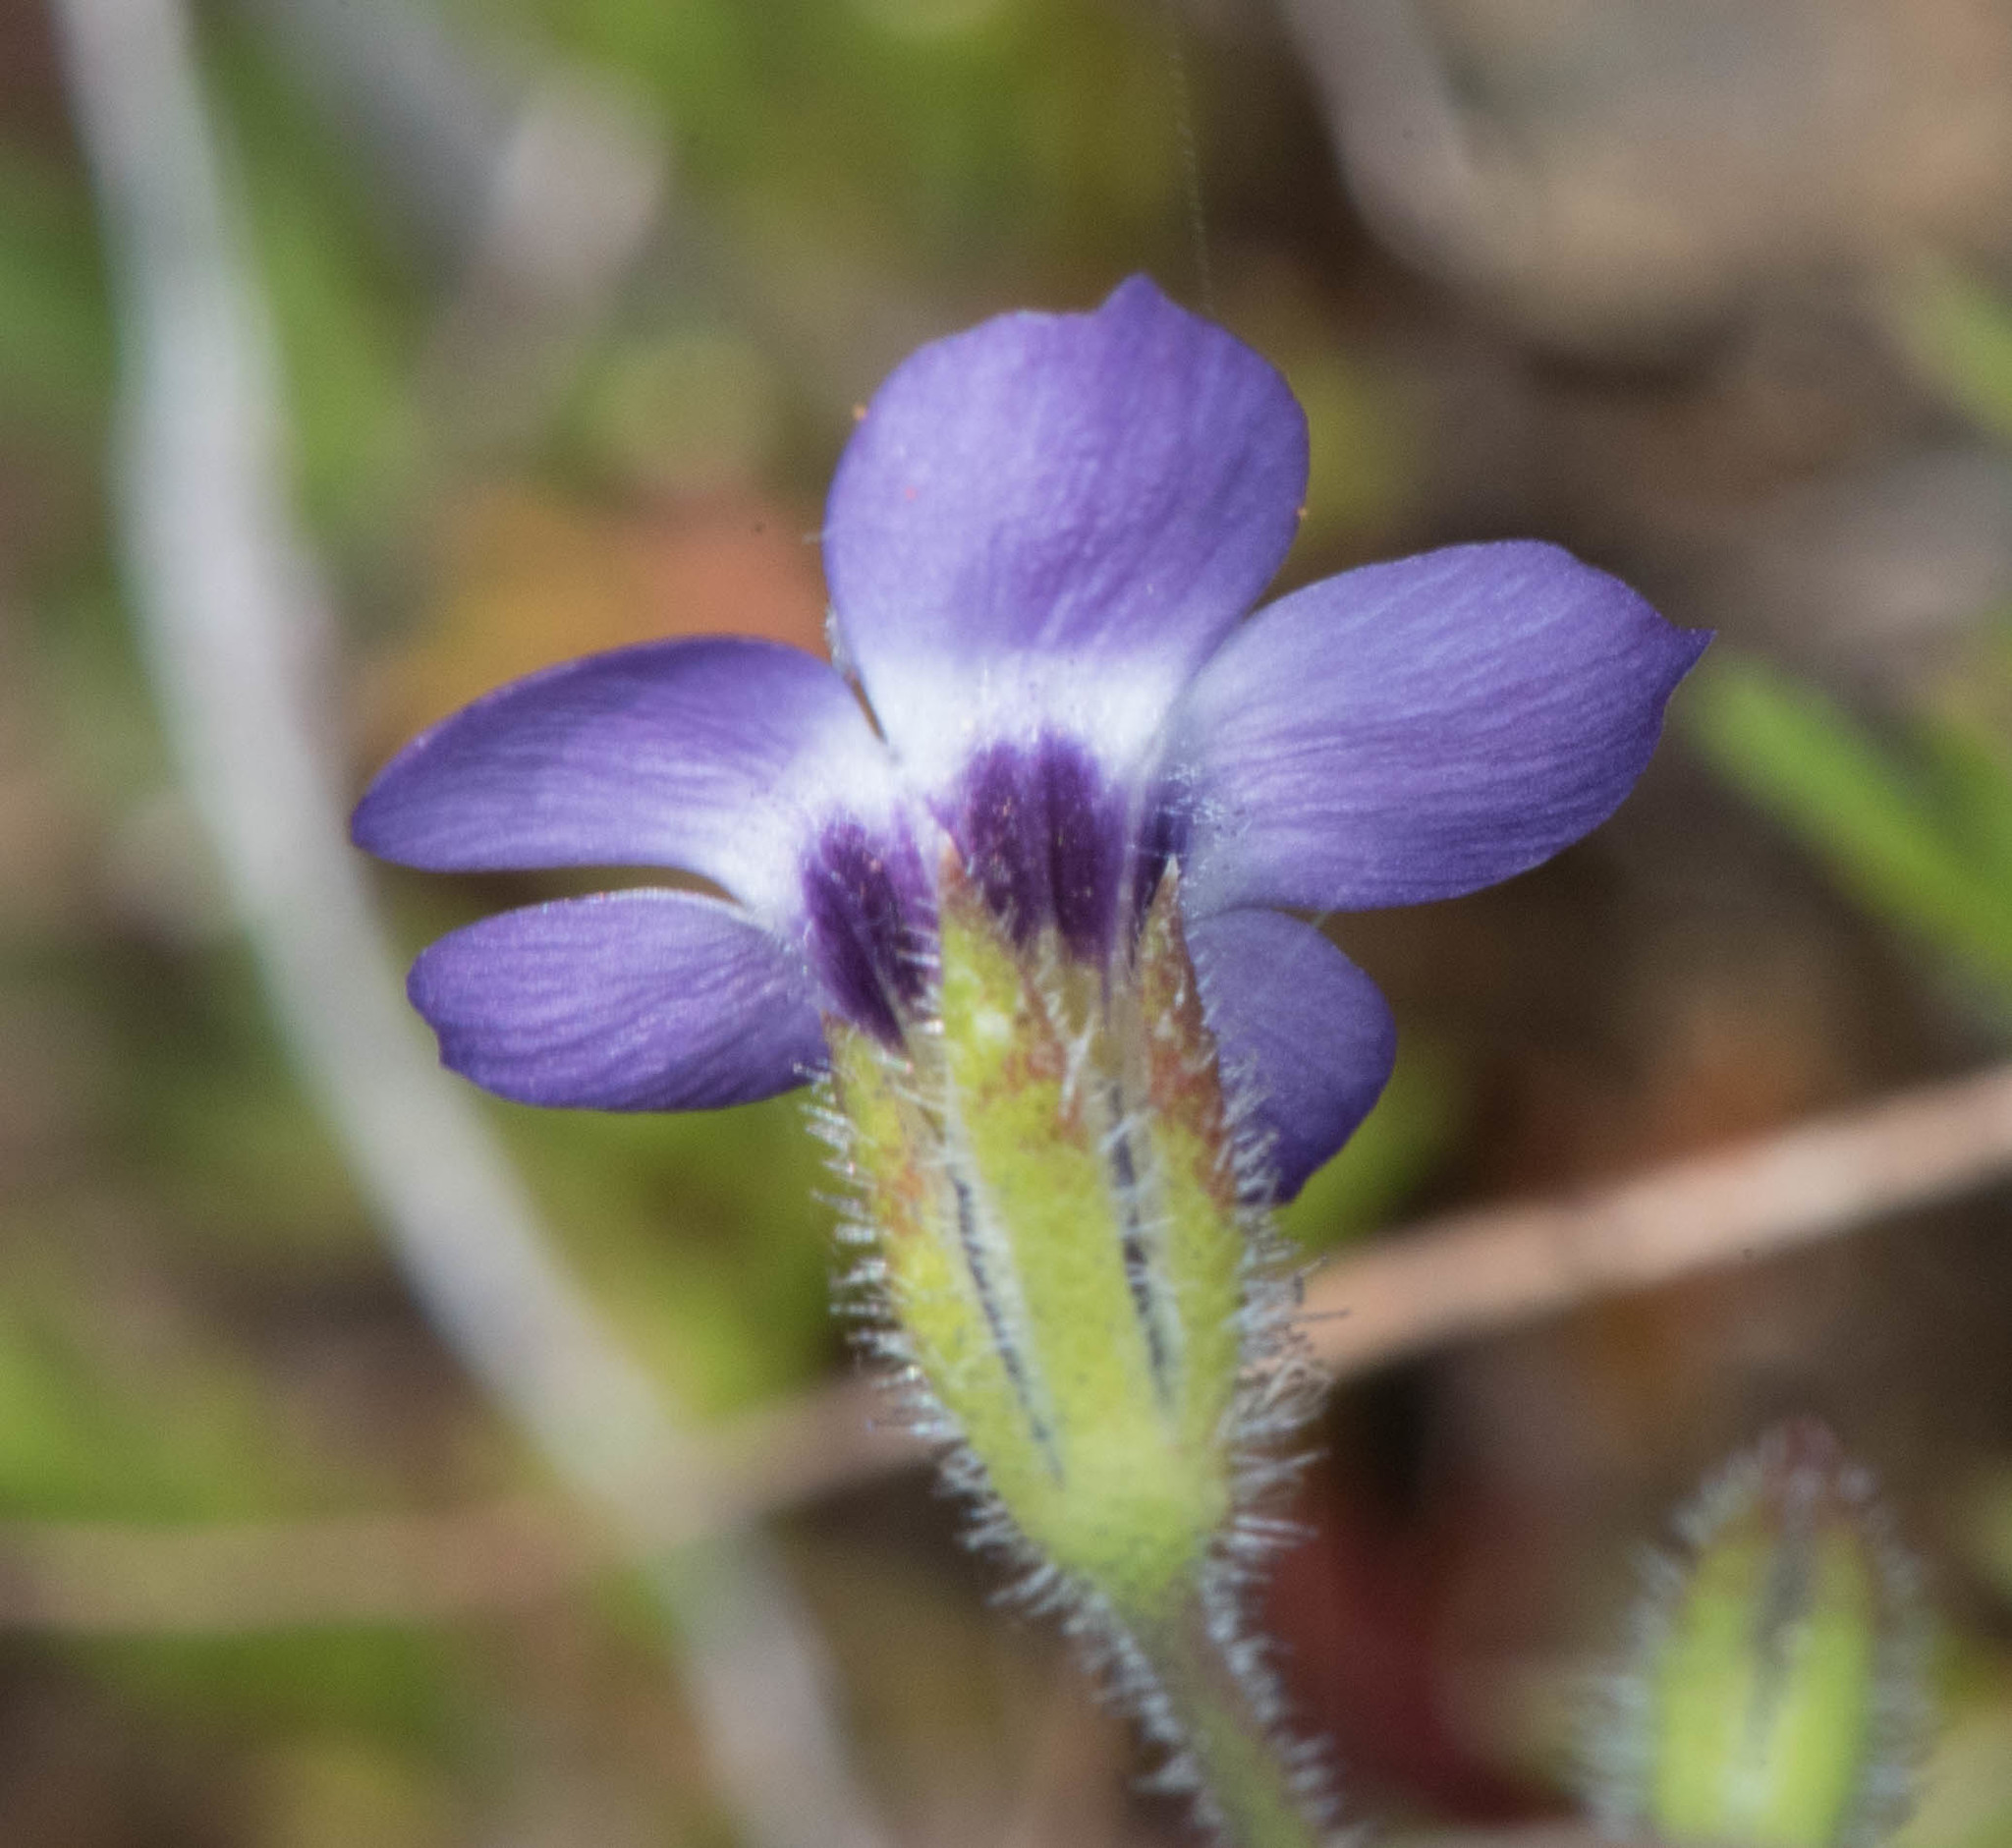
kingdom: Plantae
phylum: Tracheophyta
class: Magnoliopsida
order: Ericales
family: Polemoniaceae
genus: Gilia
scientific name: Gilia tricolor
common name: Bird's-eyes
